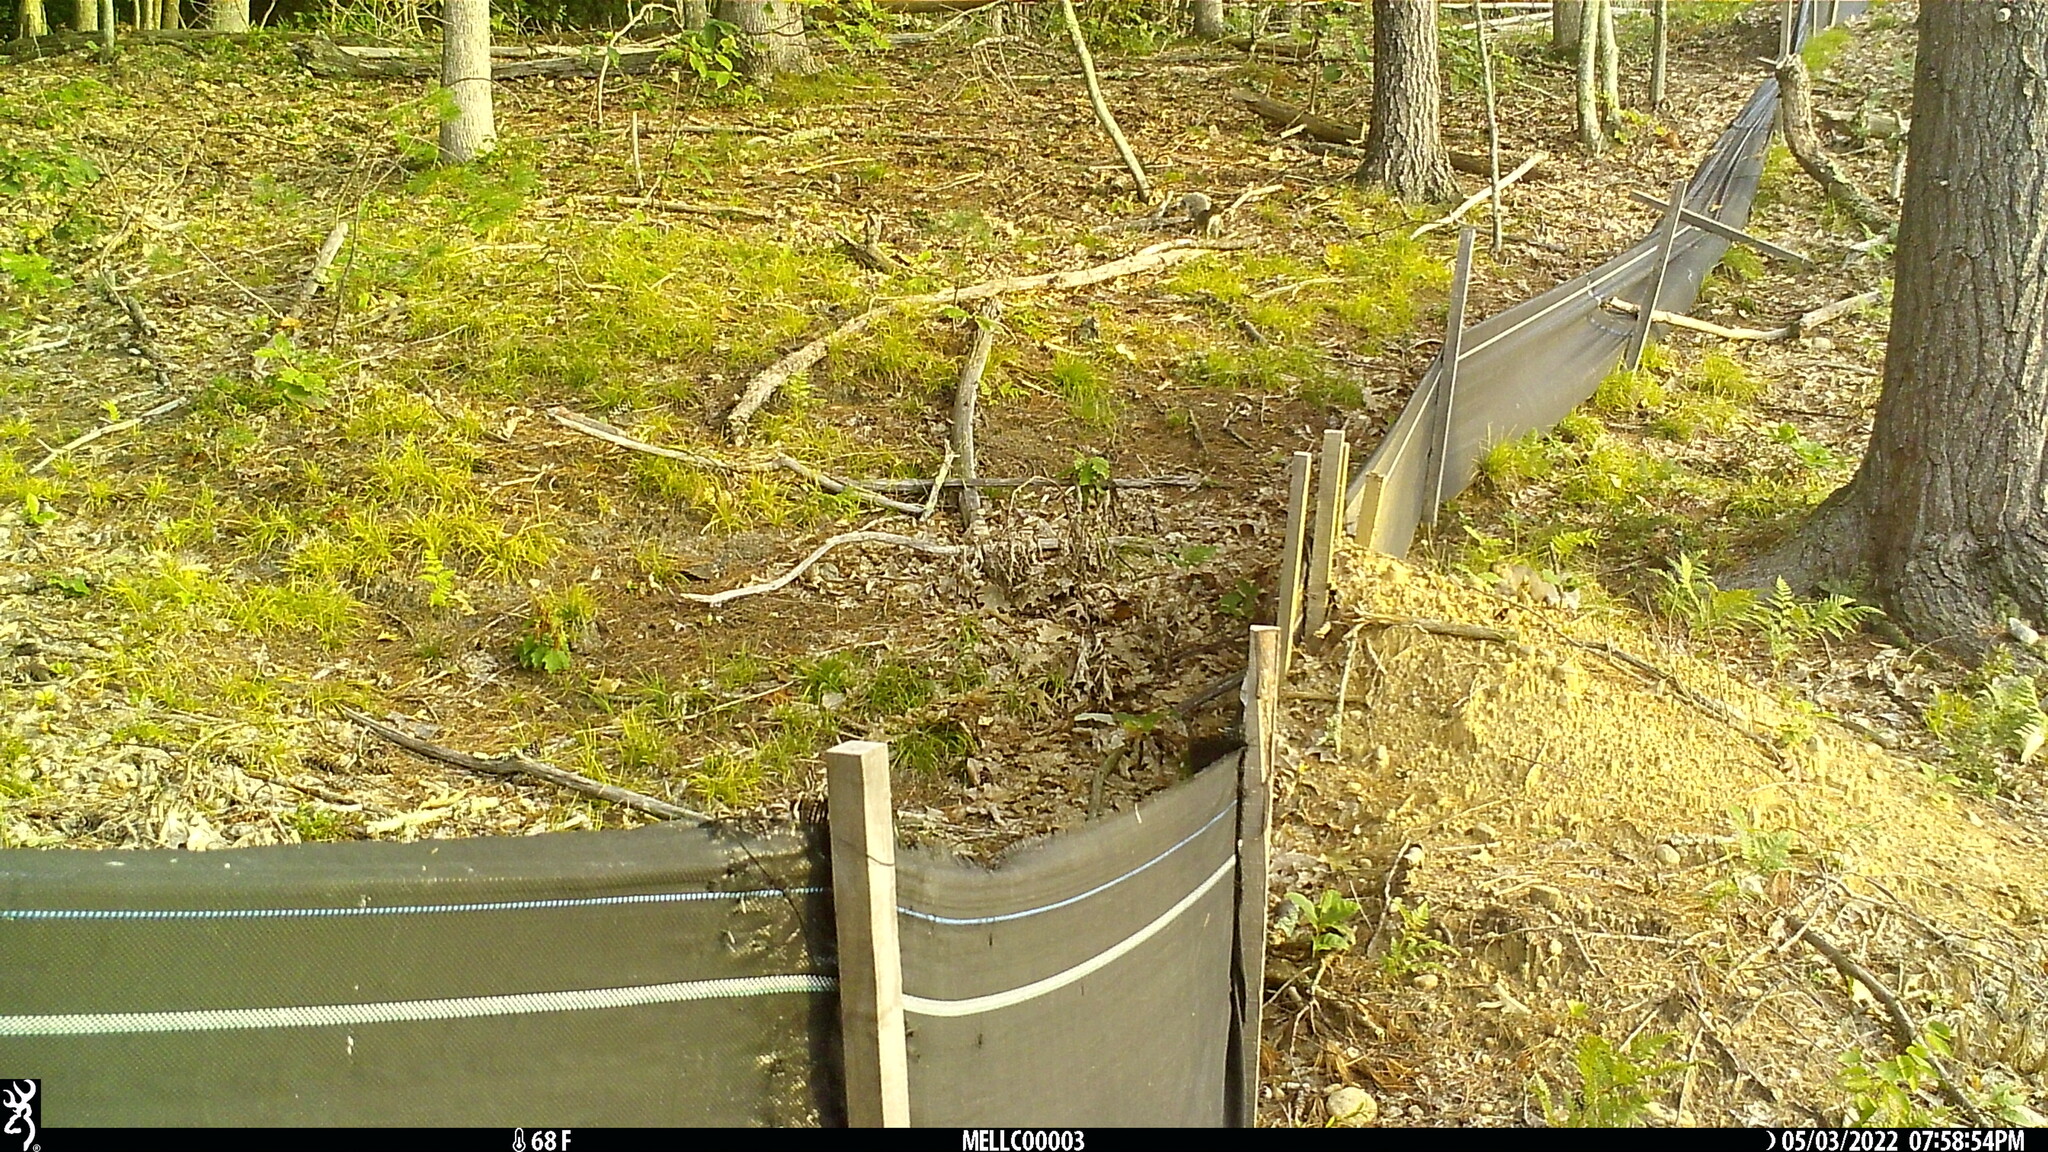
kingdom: Animalia
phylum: Chordata
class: Mammalia
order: Rodentia
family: Sciuridae
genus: Sciurus
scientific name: Sciurus carolinensis
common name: Eastern gray squirrel
